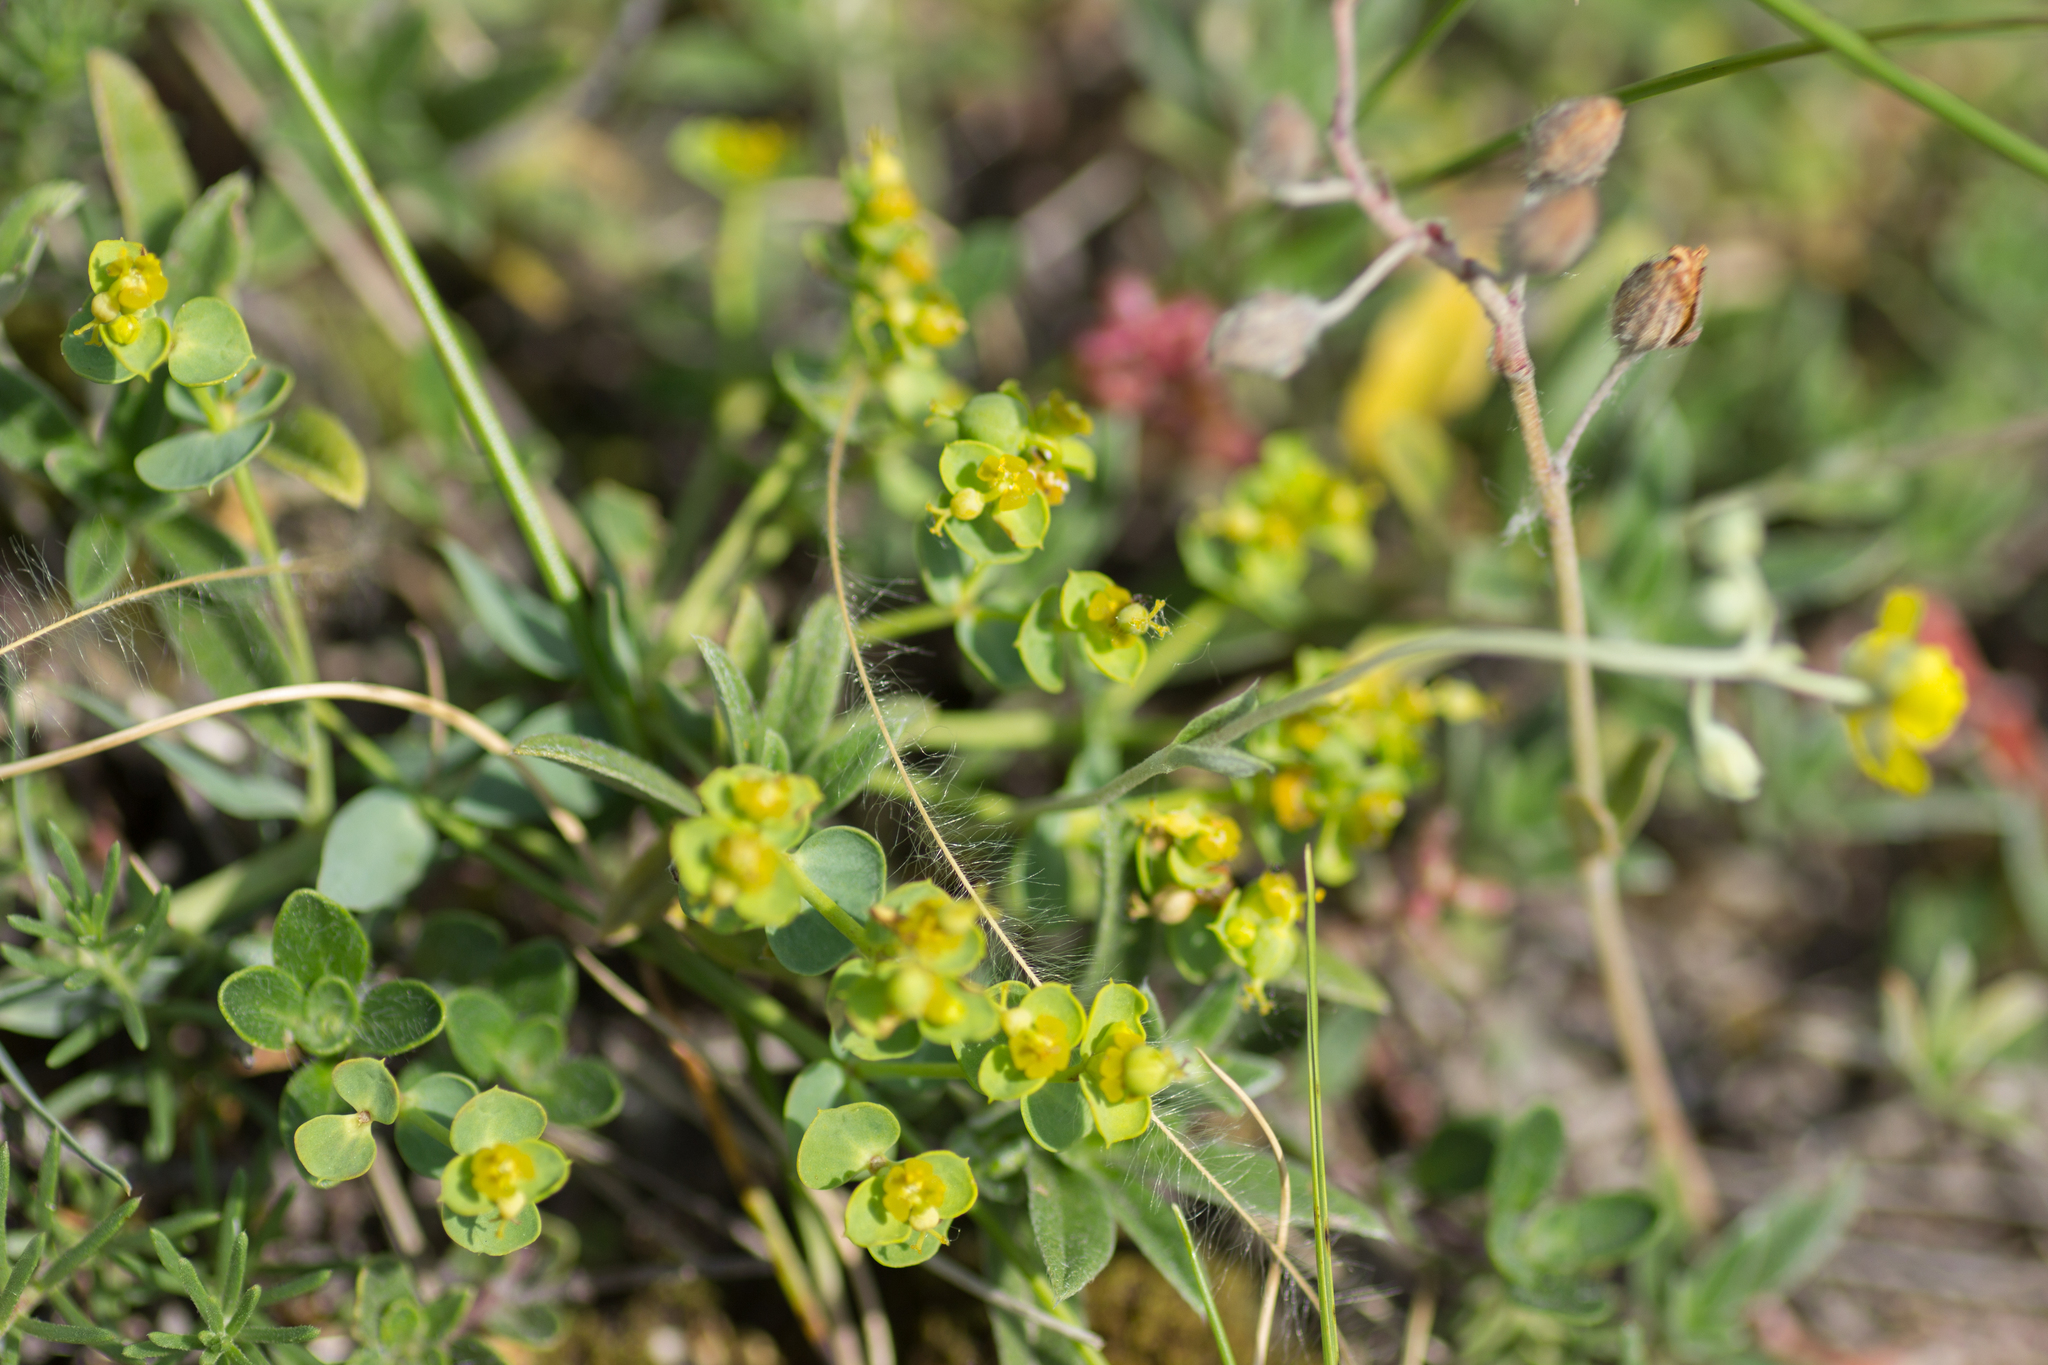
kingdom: Plantae
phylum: Tracheophyta
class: Magnoliopsida
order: Malpighiales
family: Euphorbiaceae
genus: Euphorbia
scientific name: Euphorbia seguieriana
